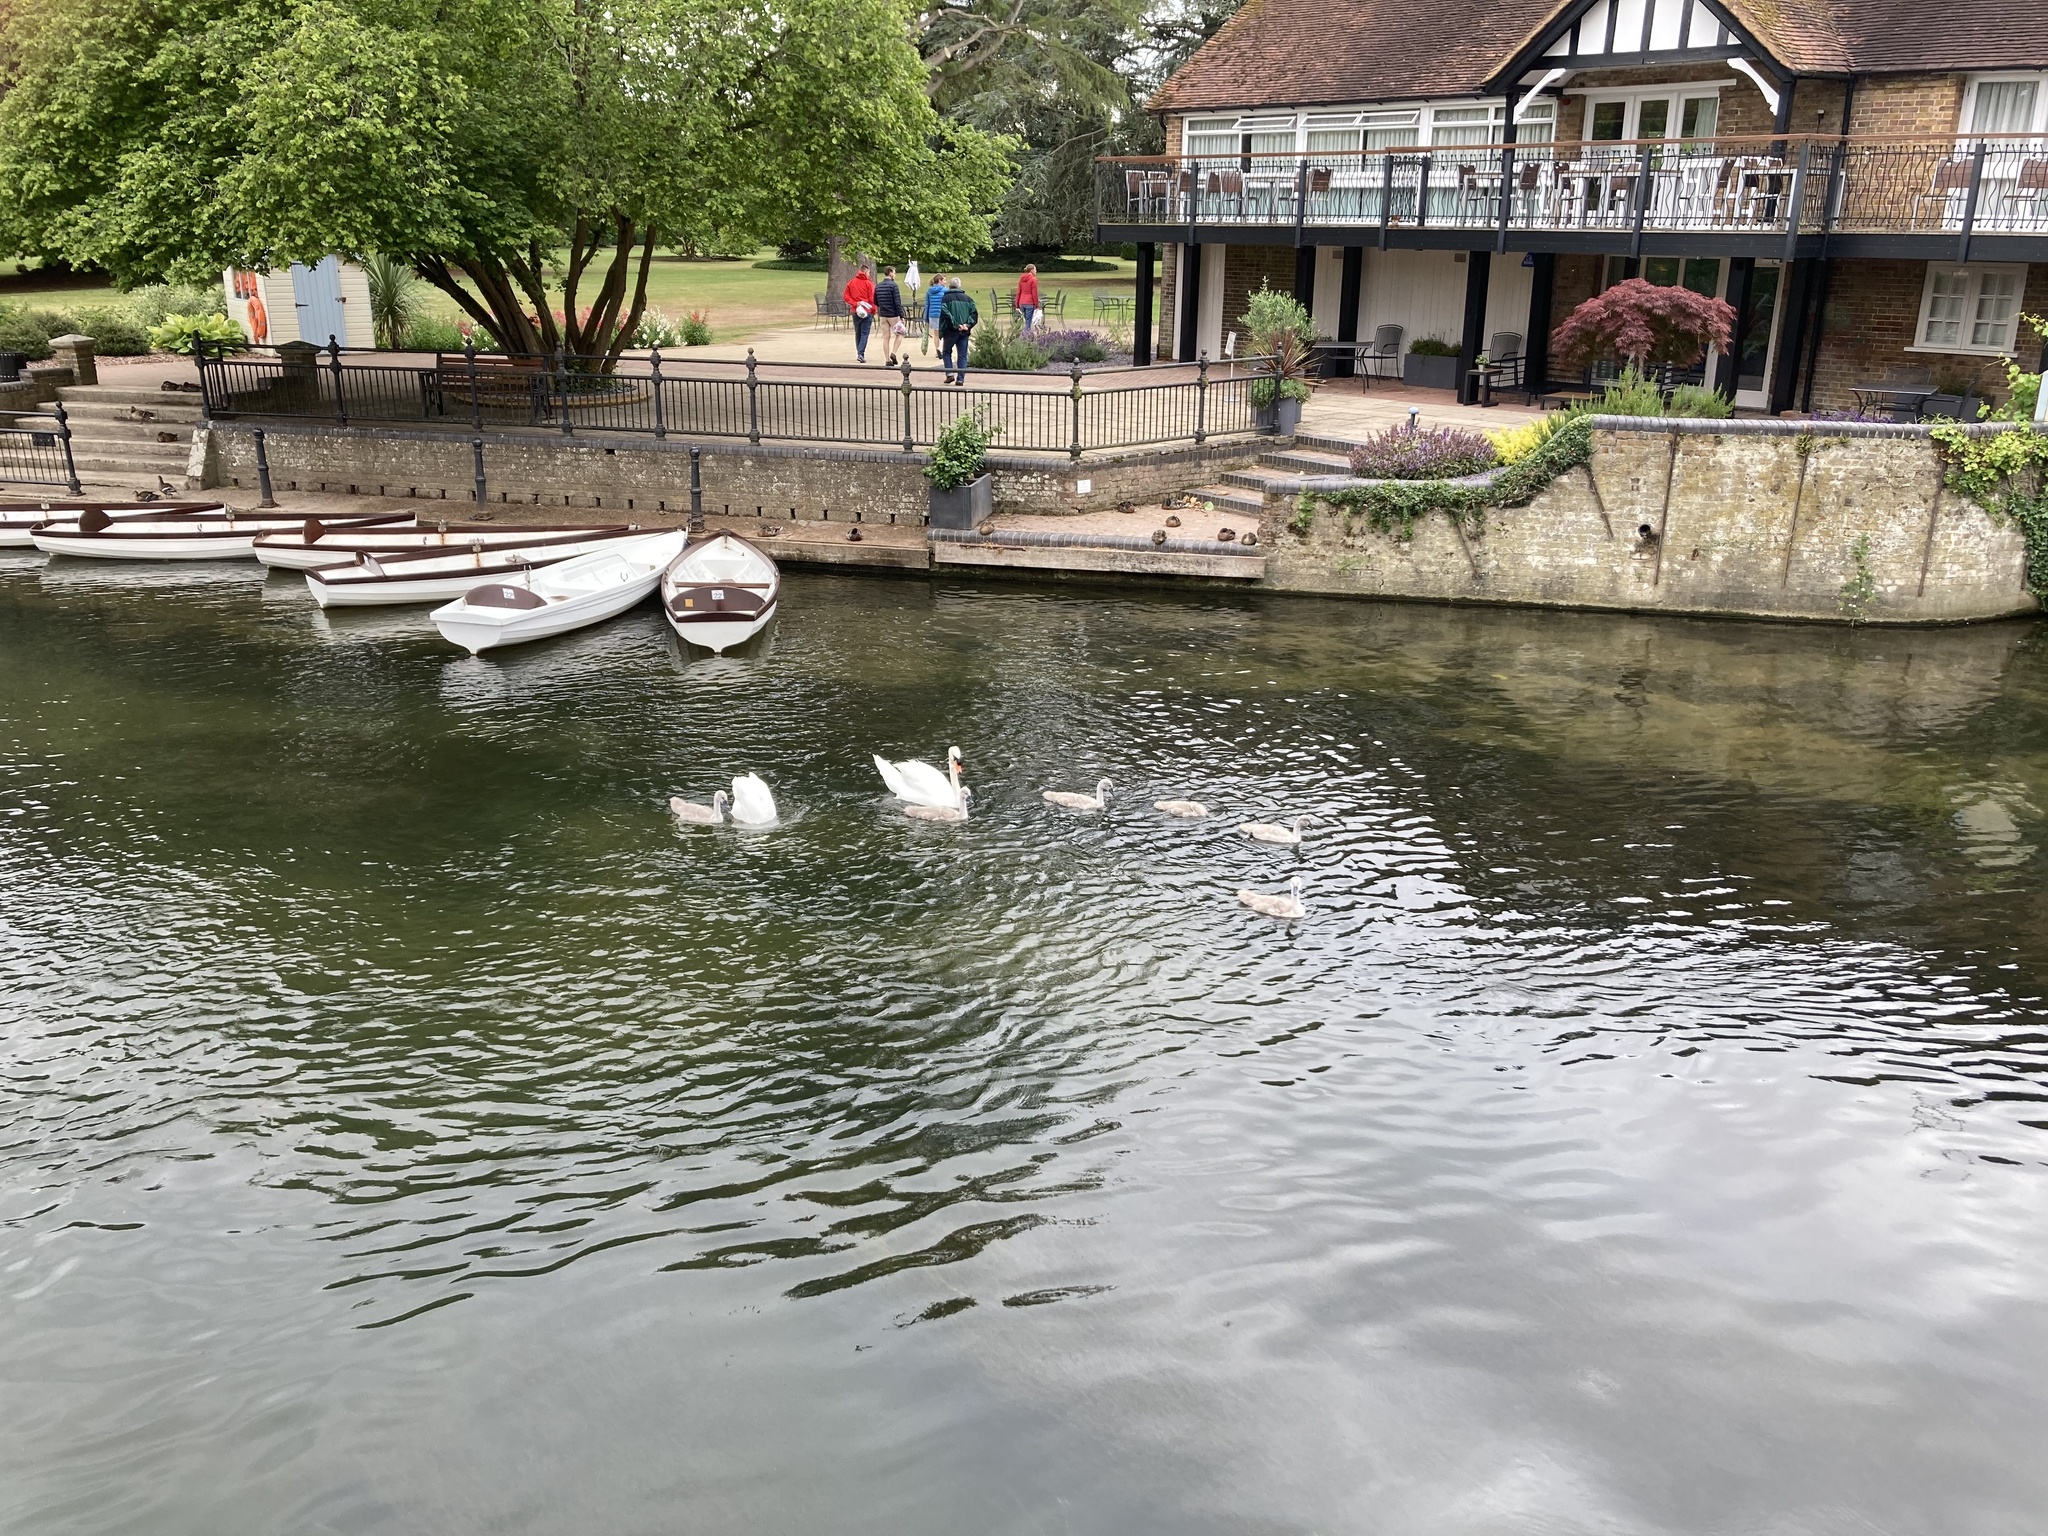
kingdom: Animalia
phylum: Chordata
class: Aves
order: Anseriformes
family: Anatidae
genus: Cygnus
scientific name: Cygnus olor
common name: Mute swan
